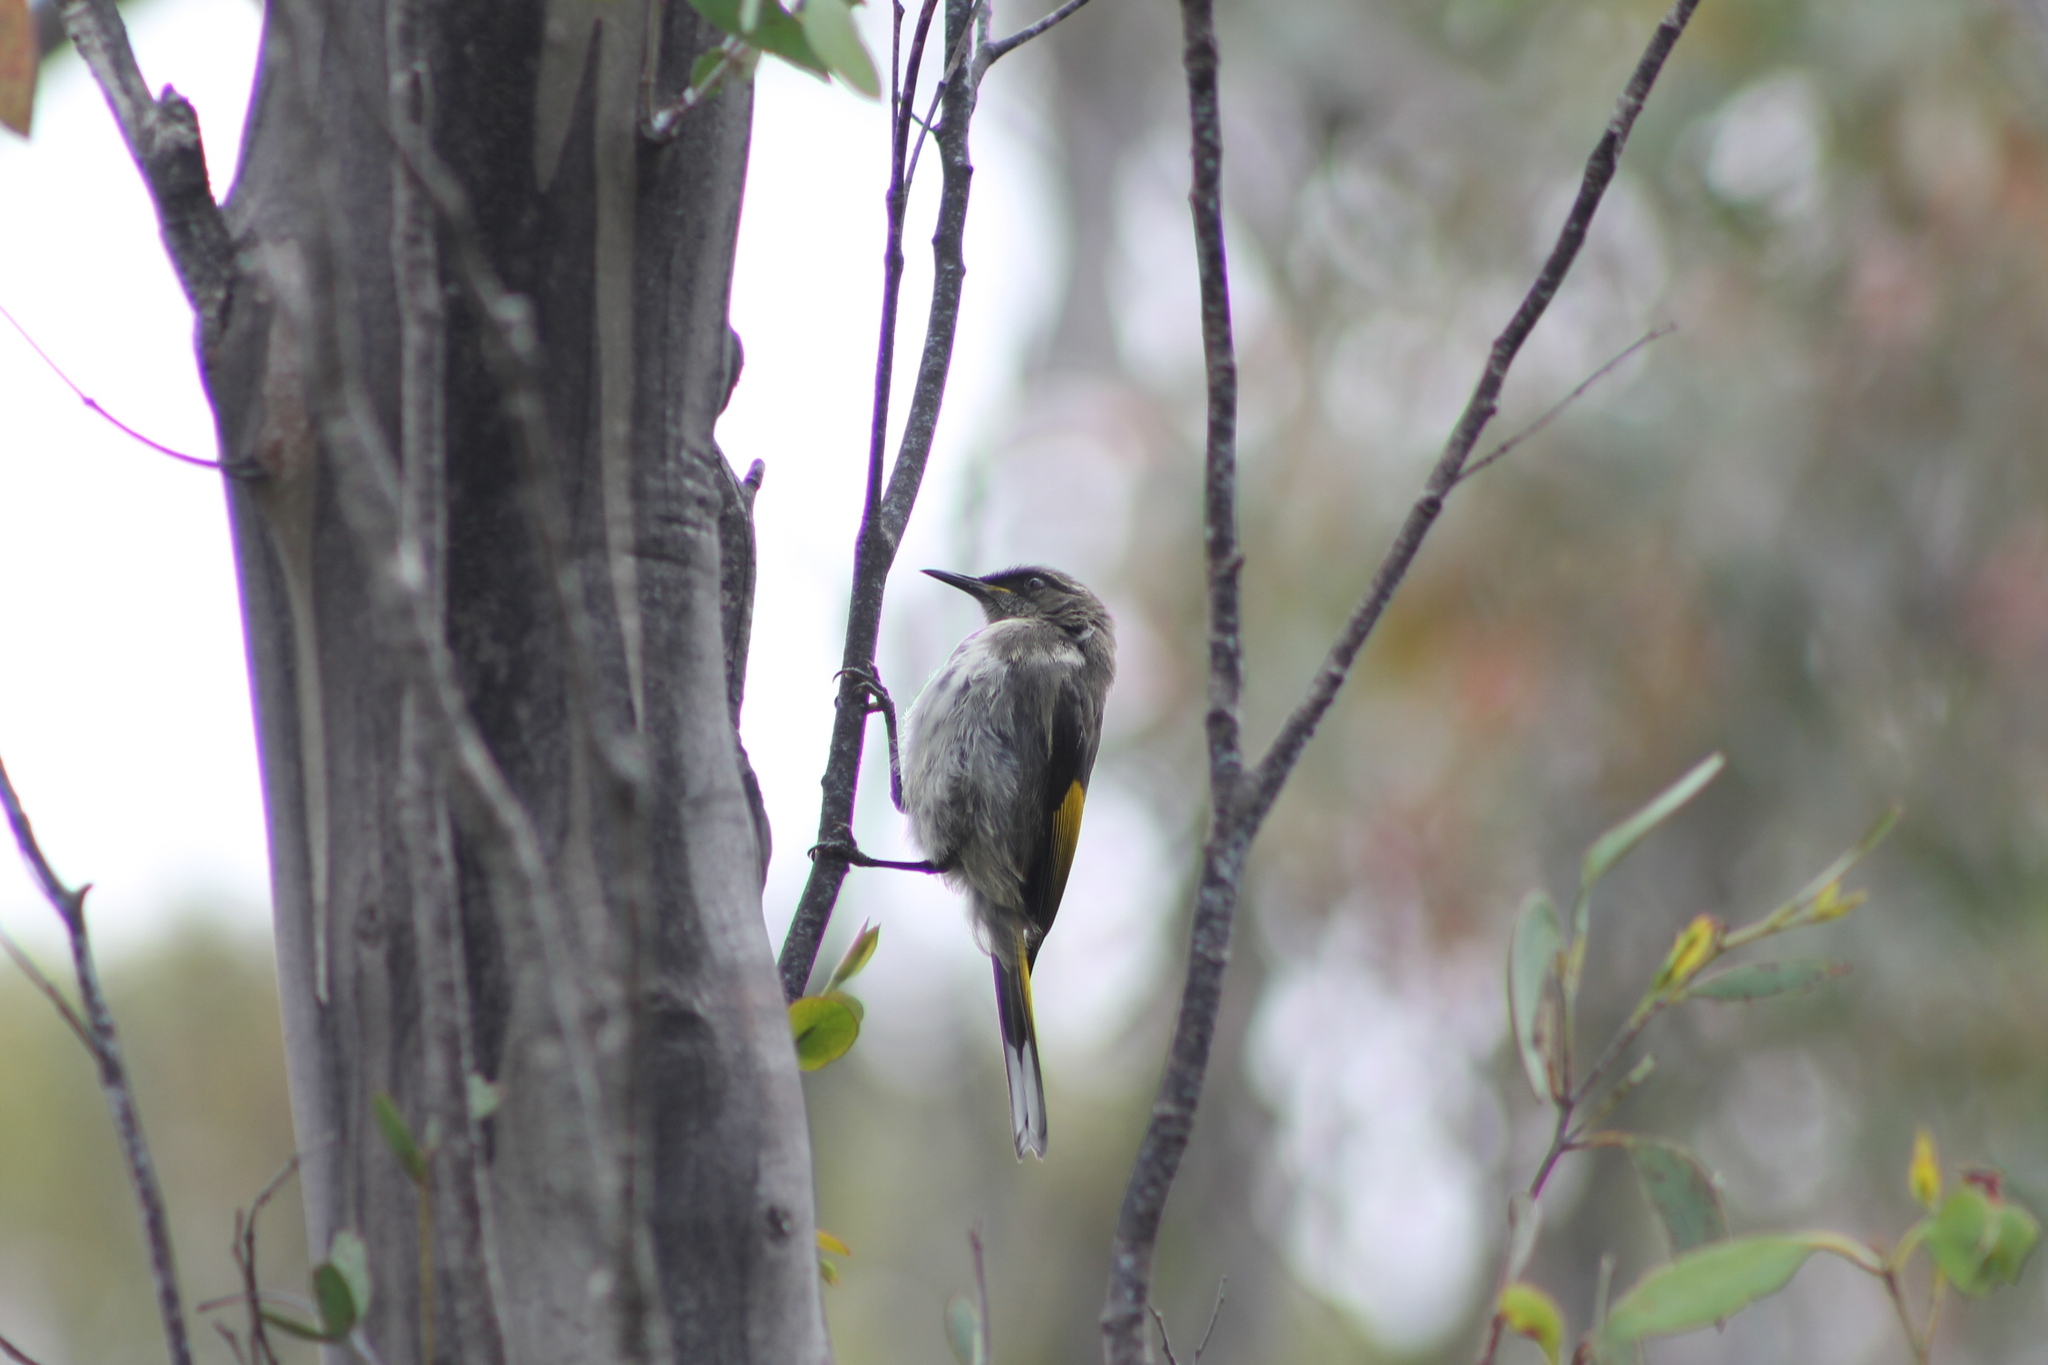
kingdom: Animalia
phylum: Chordata
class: Aves
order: Passeriformes
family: Meliphagidae
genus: Phylidonyris
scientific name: Phylidonyris pyrrhopterus
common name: Crescent honeyeater
